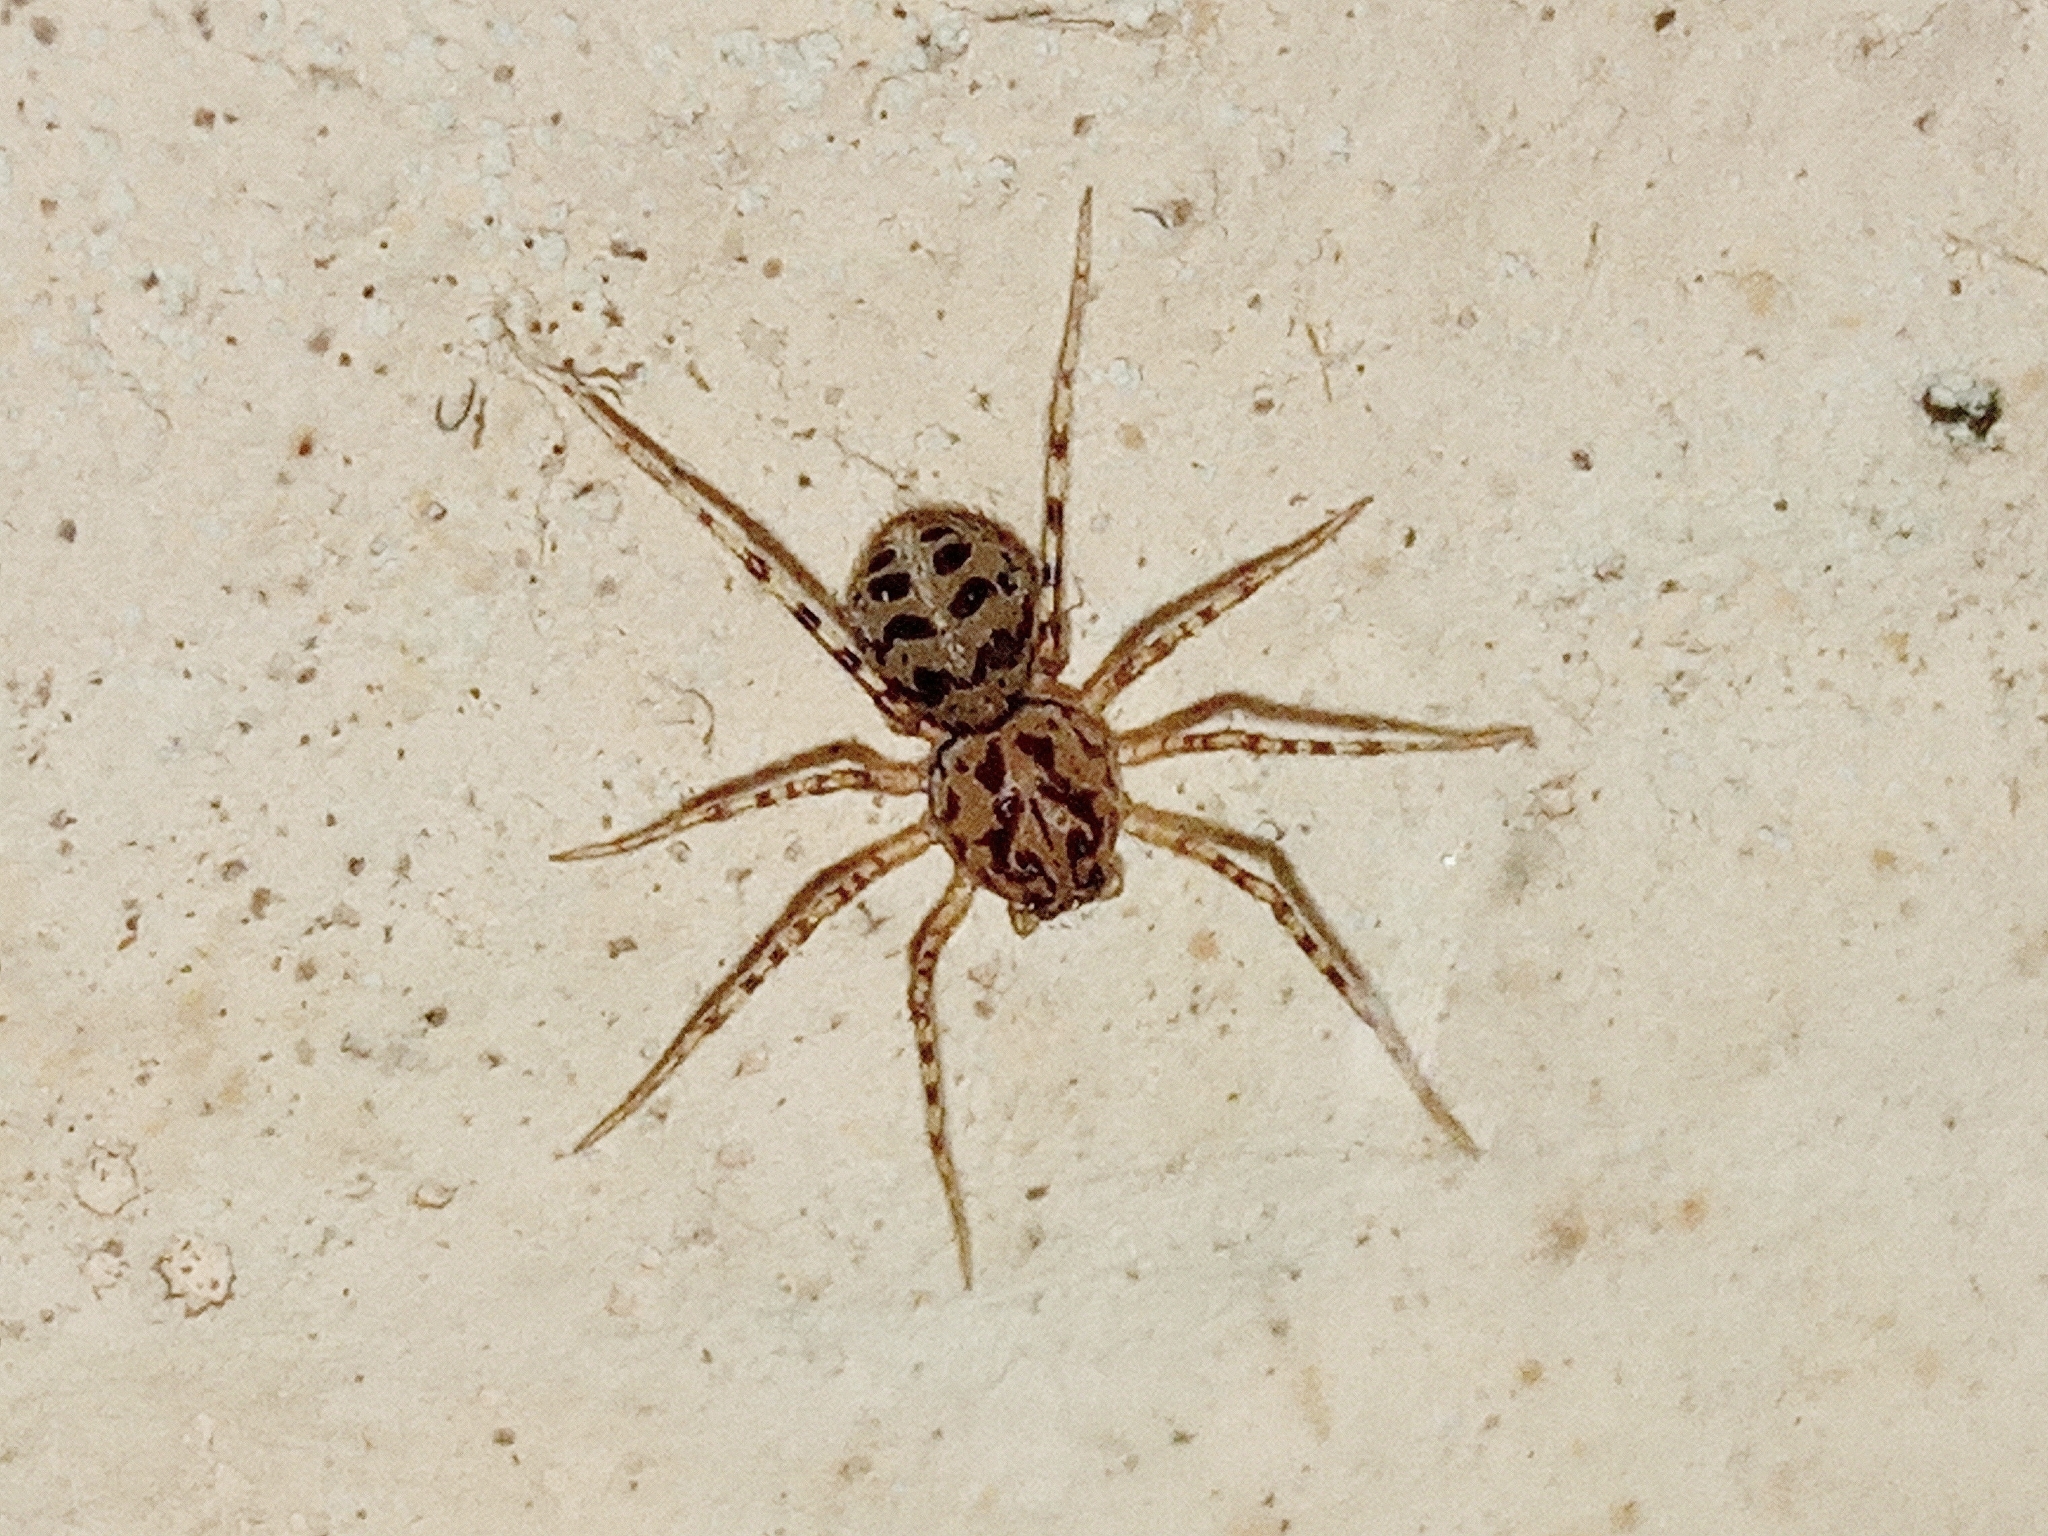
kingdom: Animalia
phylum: Arthropoda
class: Arachnida
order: Araneae
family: Scytodidae
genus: Scytodes
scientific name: Scytodes thoracica
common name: Spitting spider
